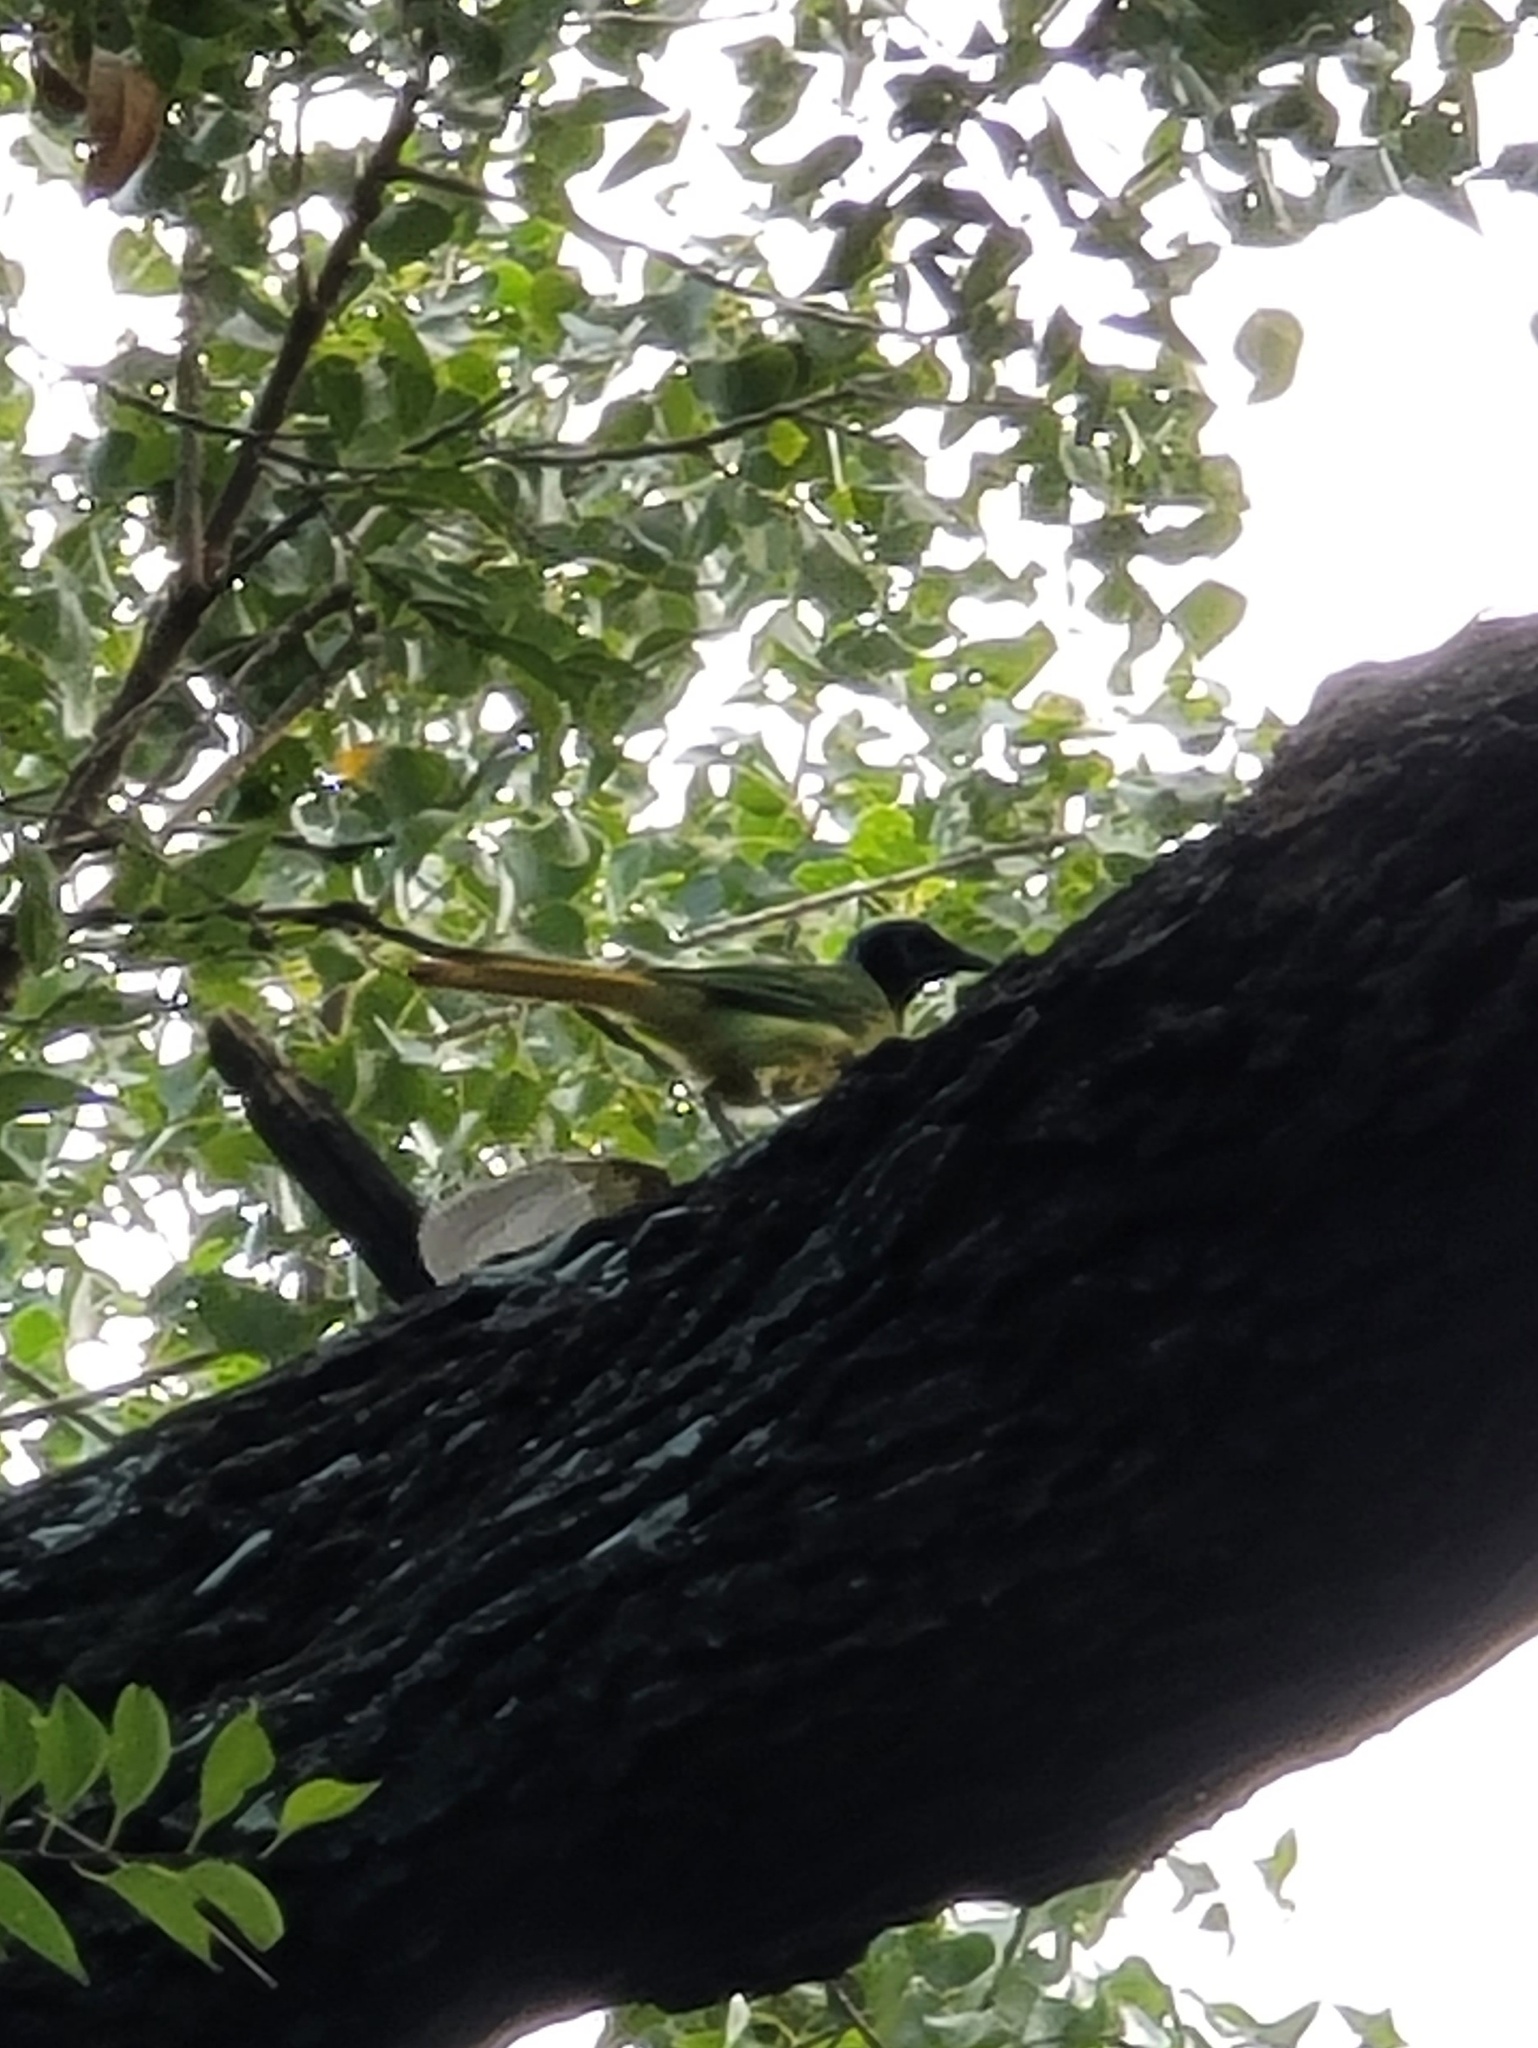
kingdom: Animalia
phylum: Chordata
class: Aves
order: Passeriformes
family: Corvidae
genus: Cyanocorax
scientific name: Cyanocorax yncas
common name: Green jay
